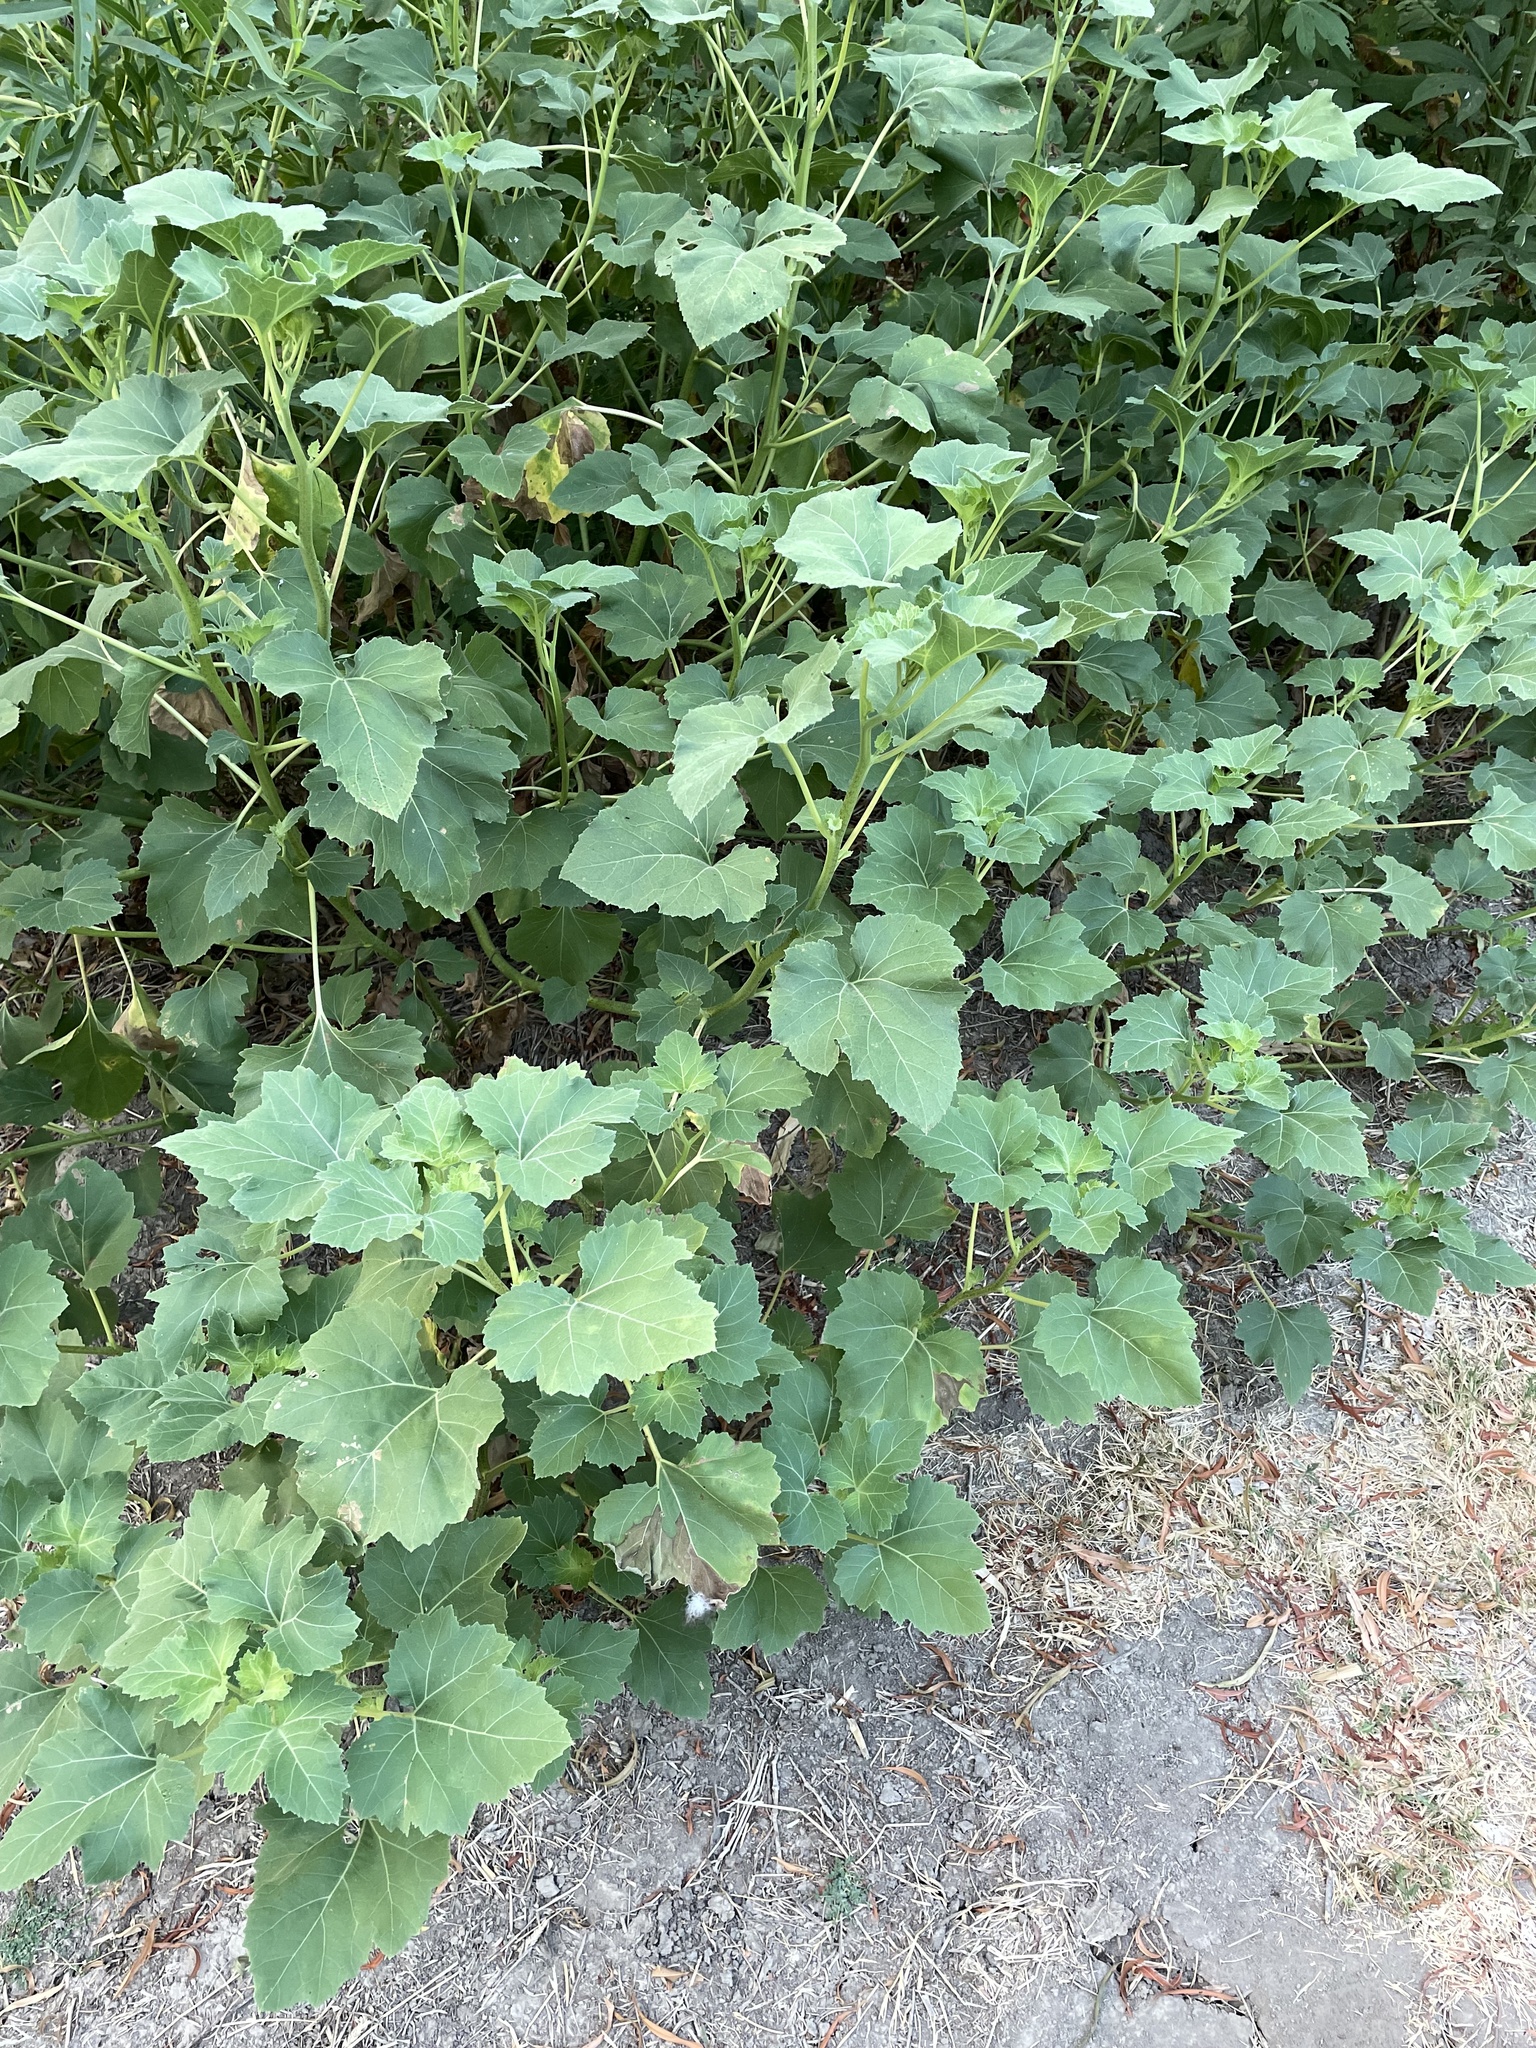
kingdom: Plantae
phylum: Tracheophyta
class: Magnoliopsida
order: Asterales
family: Asteraceae
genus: Xanthium
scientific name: Xanthium strumarium
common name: Rough cocklebur
